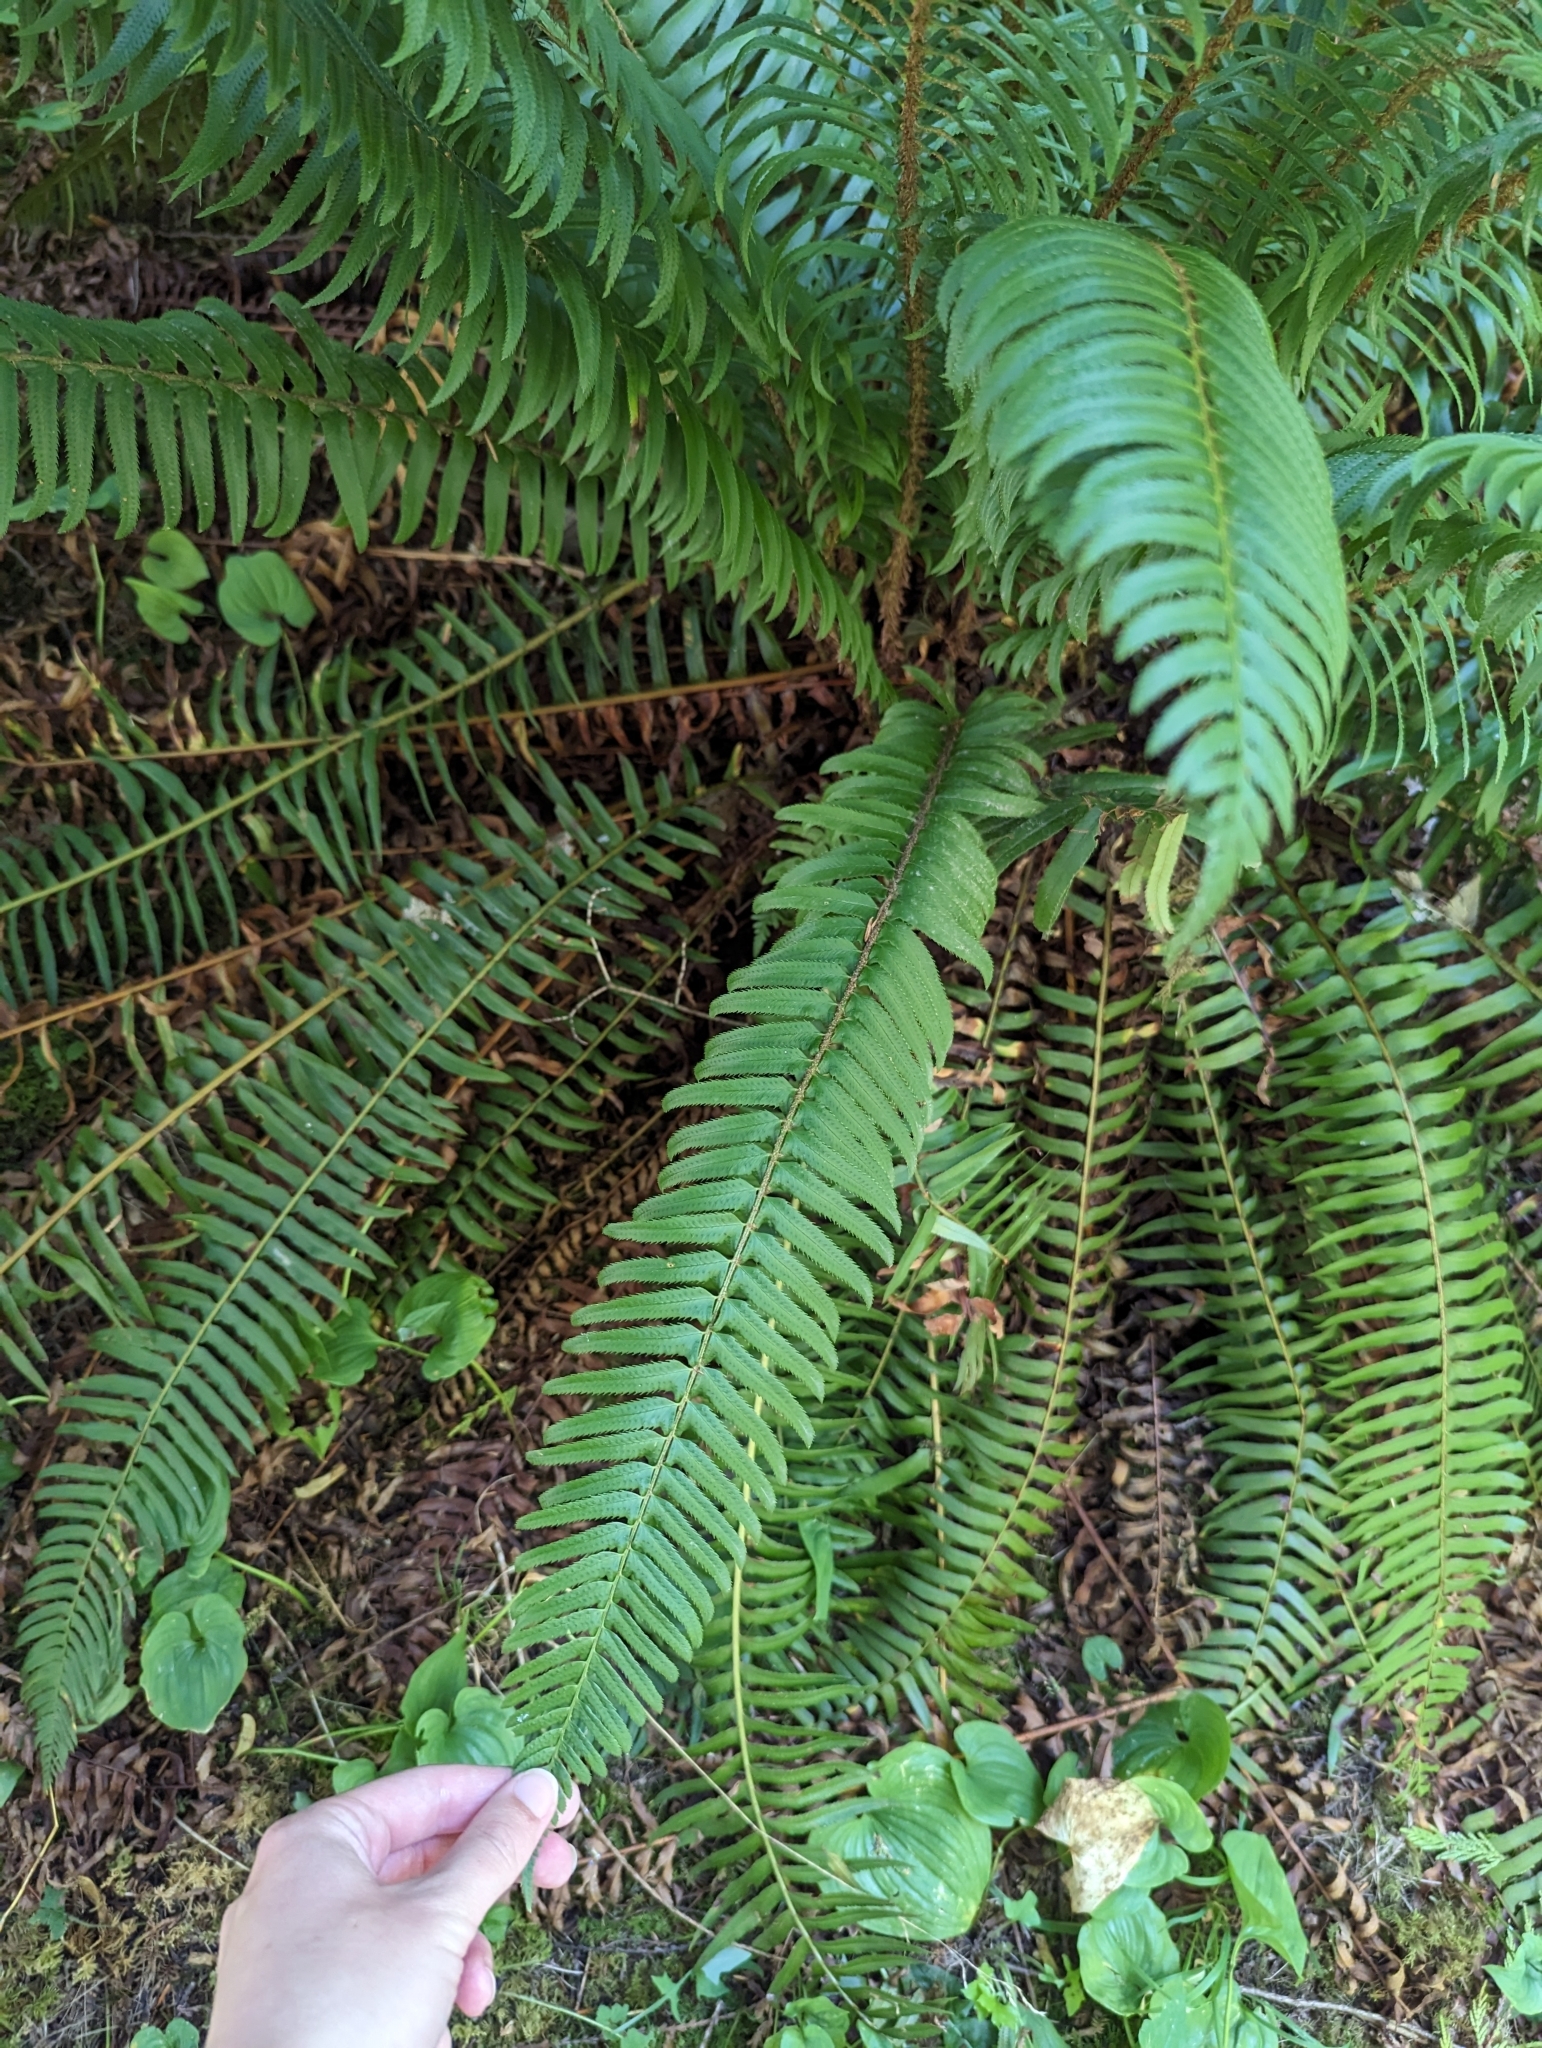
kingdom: Plantae
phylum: Tracheophyta
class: Polypodiopsida
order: Polypodiales
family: Dryopteridaceae
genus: Polystichum
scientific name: Polystichum munitum
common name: Western sword-fern
